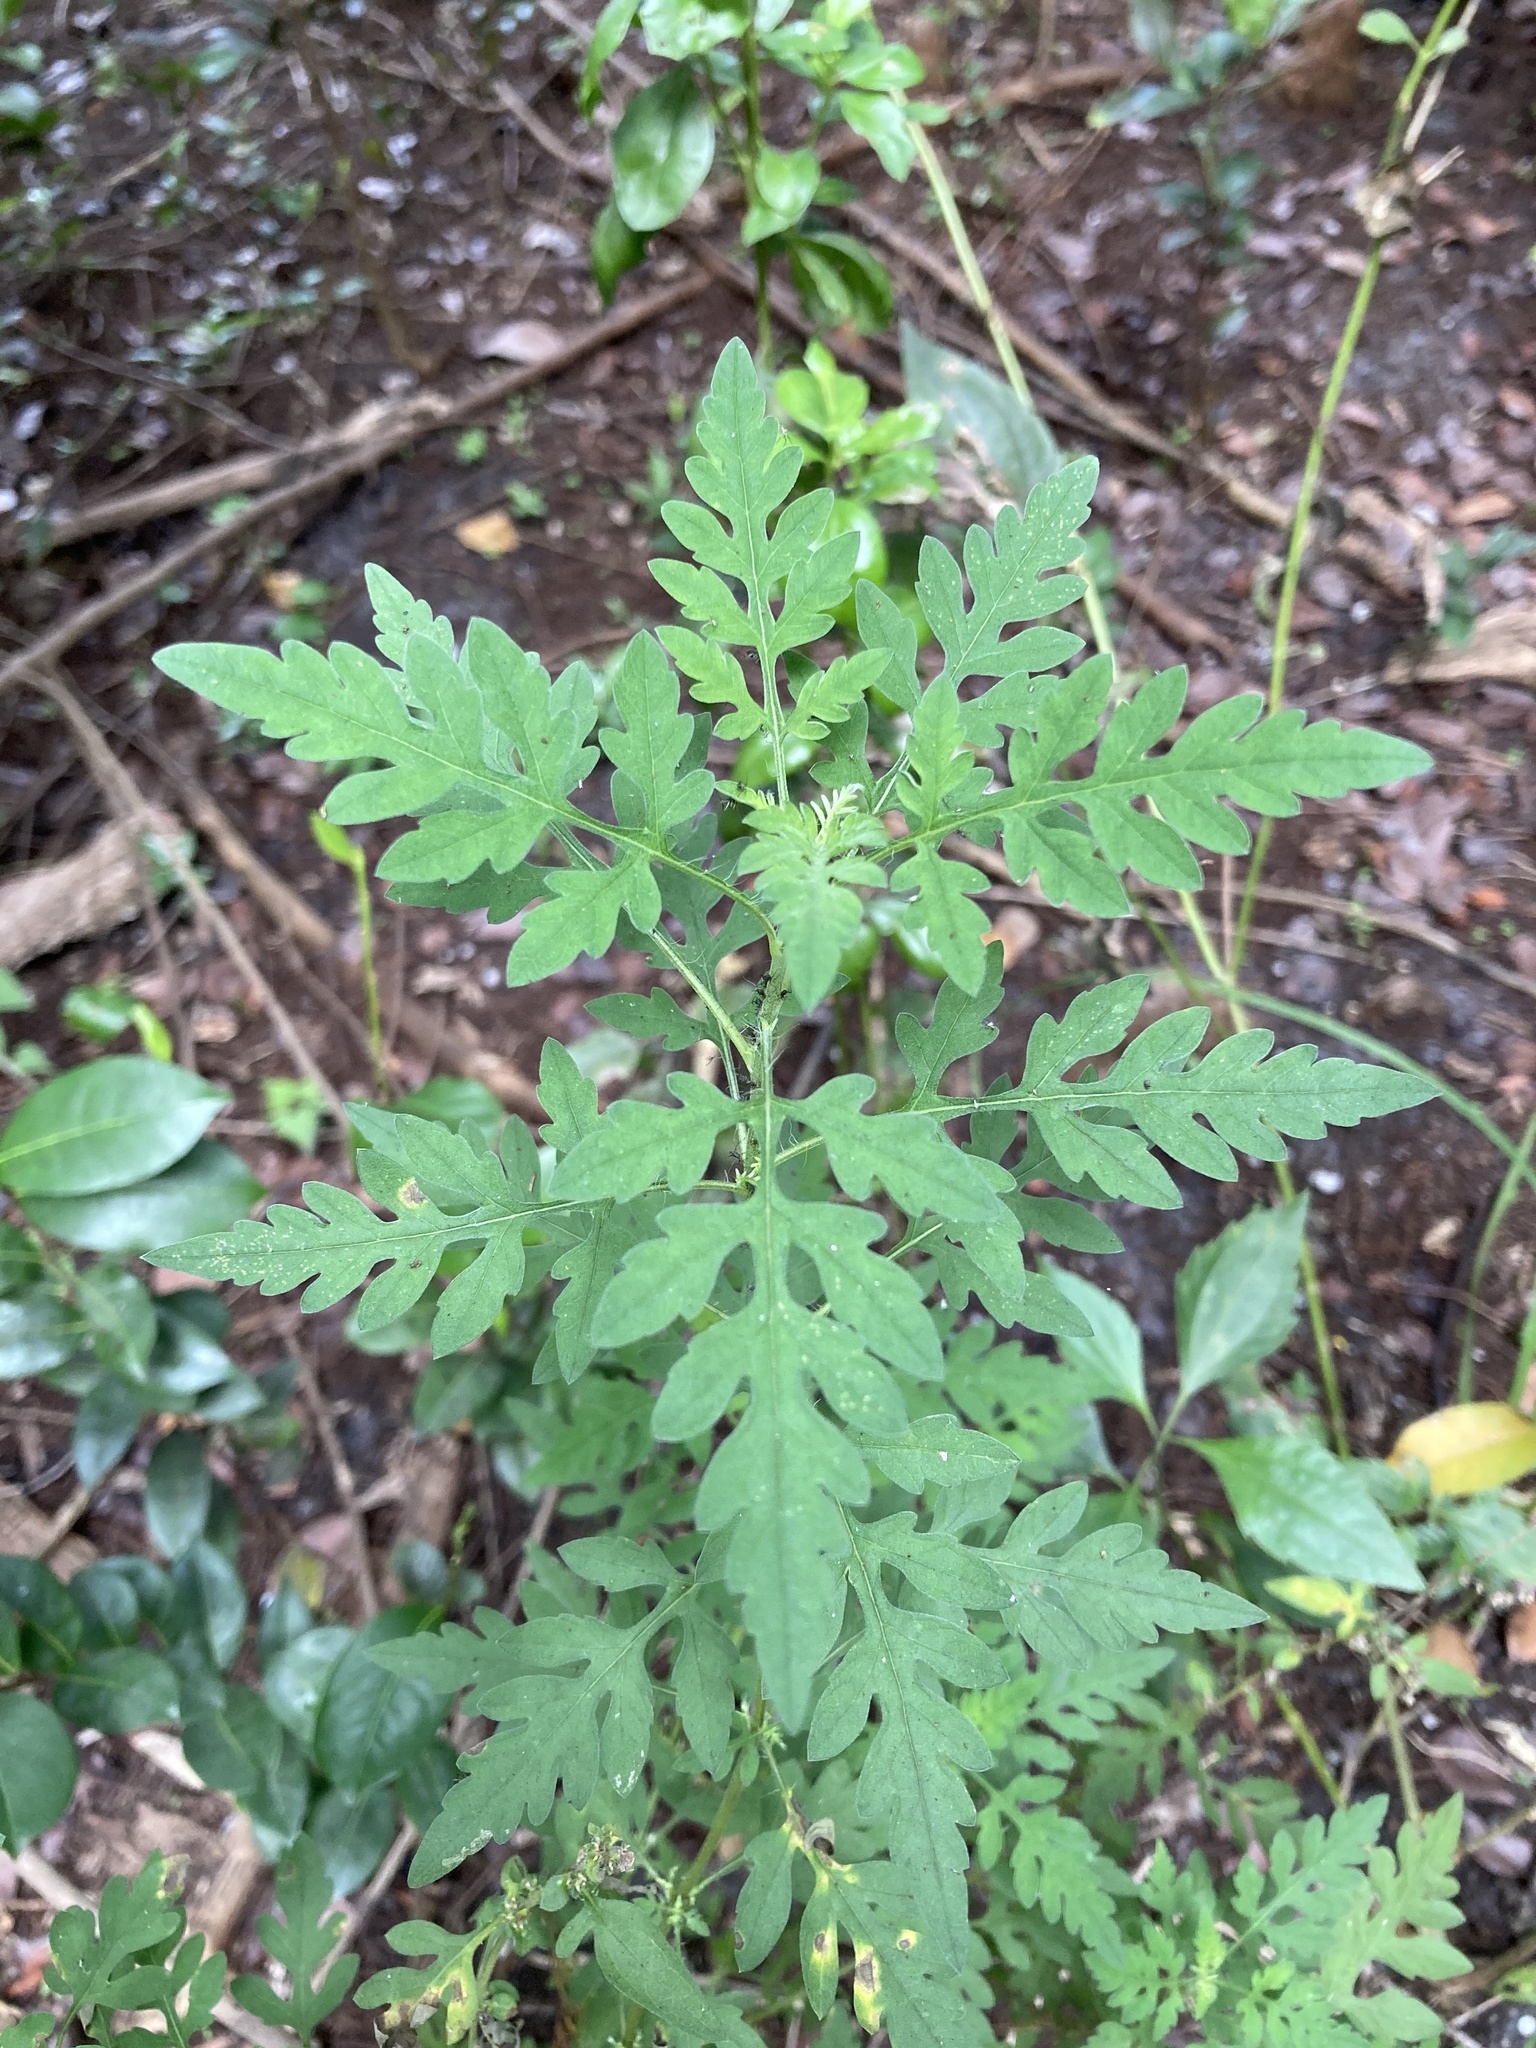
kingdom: Plantae
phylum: Tracheophyta
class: Magnoliopsida
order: Asterales
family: Asteraceae
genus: Ambrosia
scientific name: Ambrosia artemisiifolia
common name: Annual ragweed
